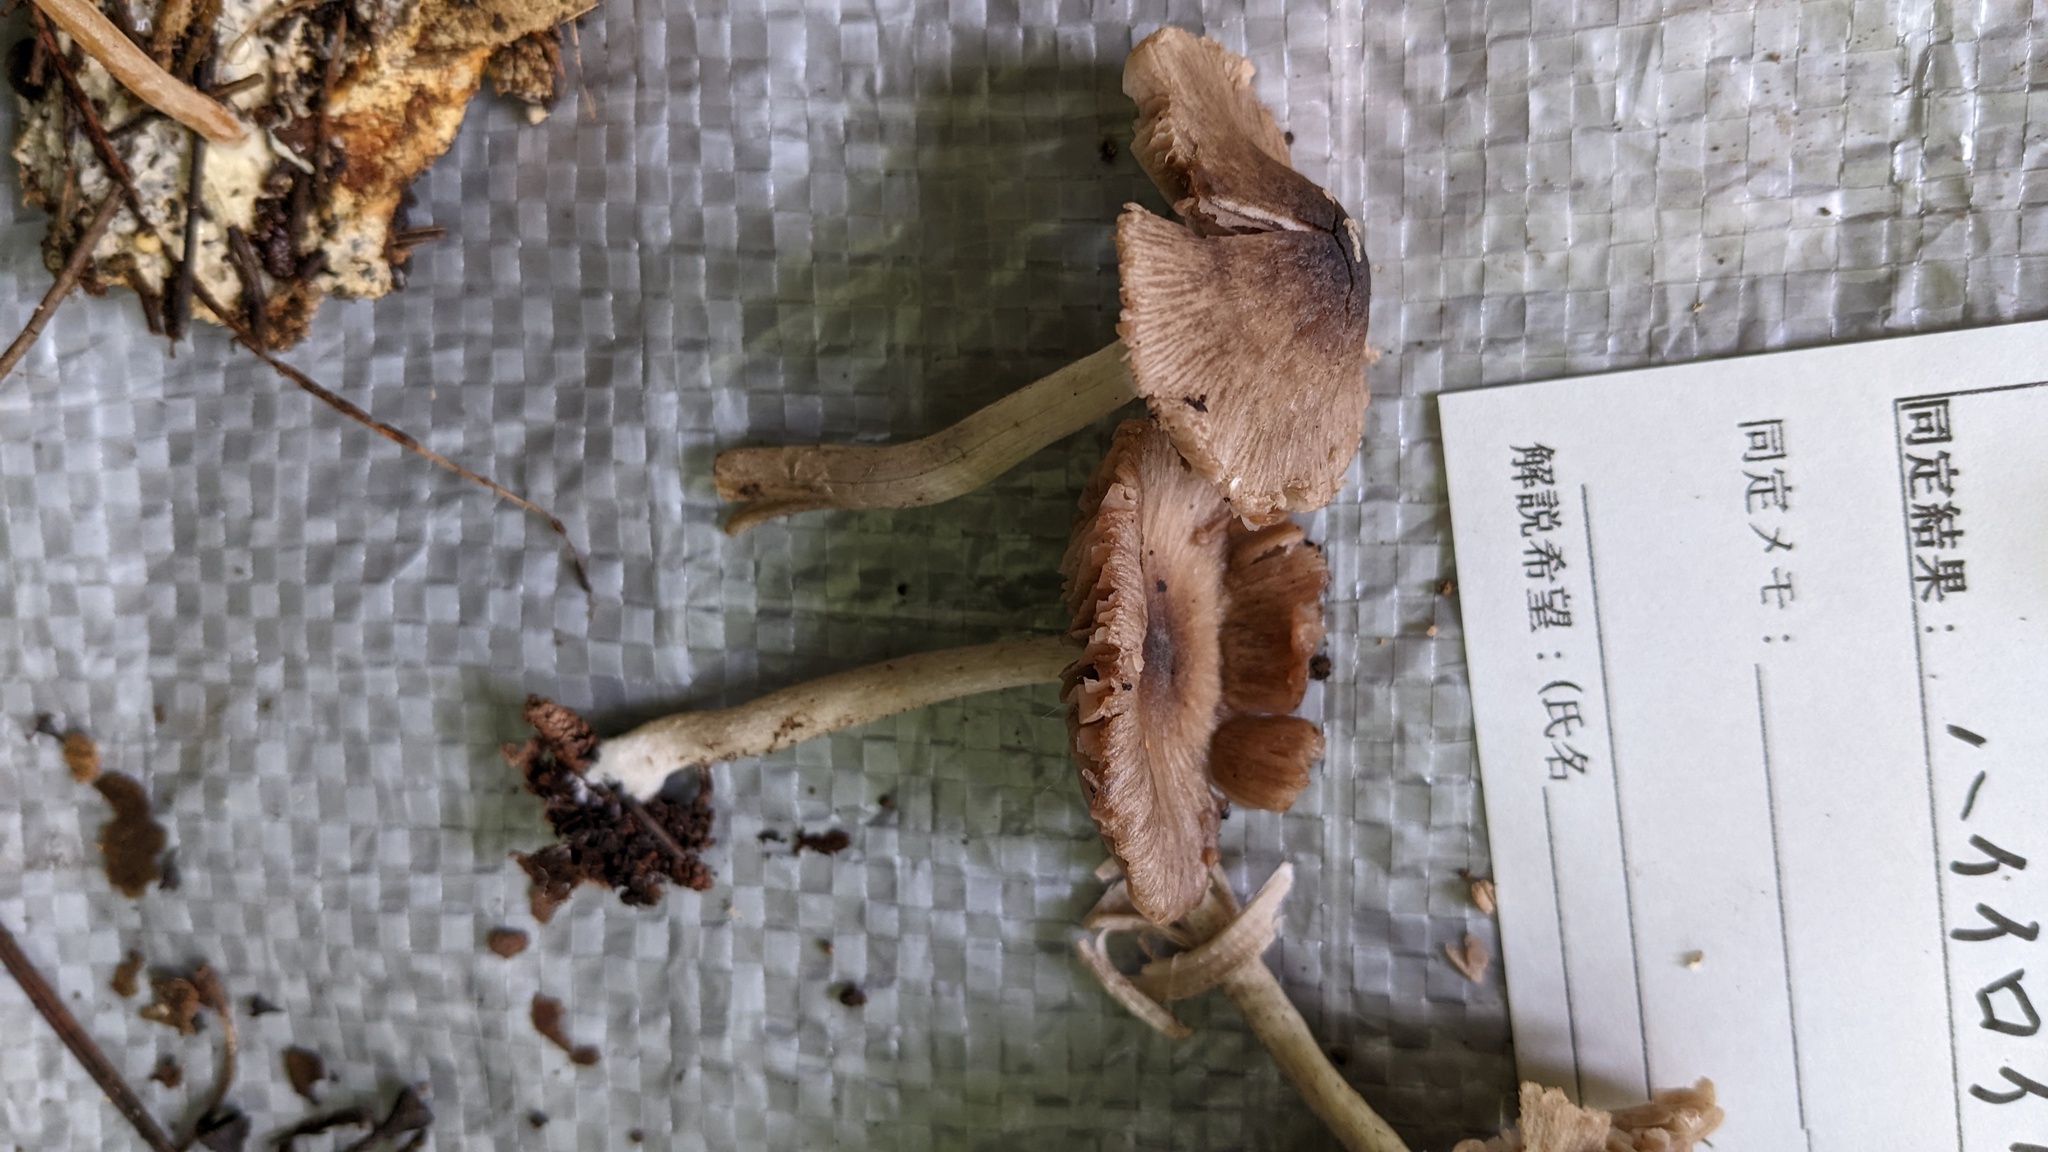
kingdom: Fungi
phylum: Basidiomycota
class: Agaricomycetes
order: Agaricales
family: Psathyrellaceae
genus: Coprinopsis
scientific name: Coprinopsis cineraria
